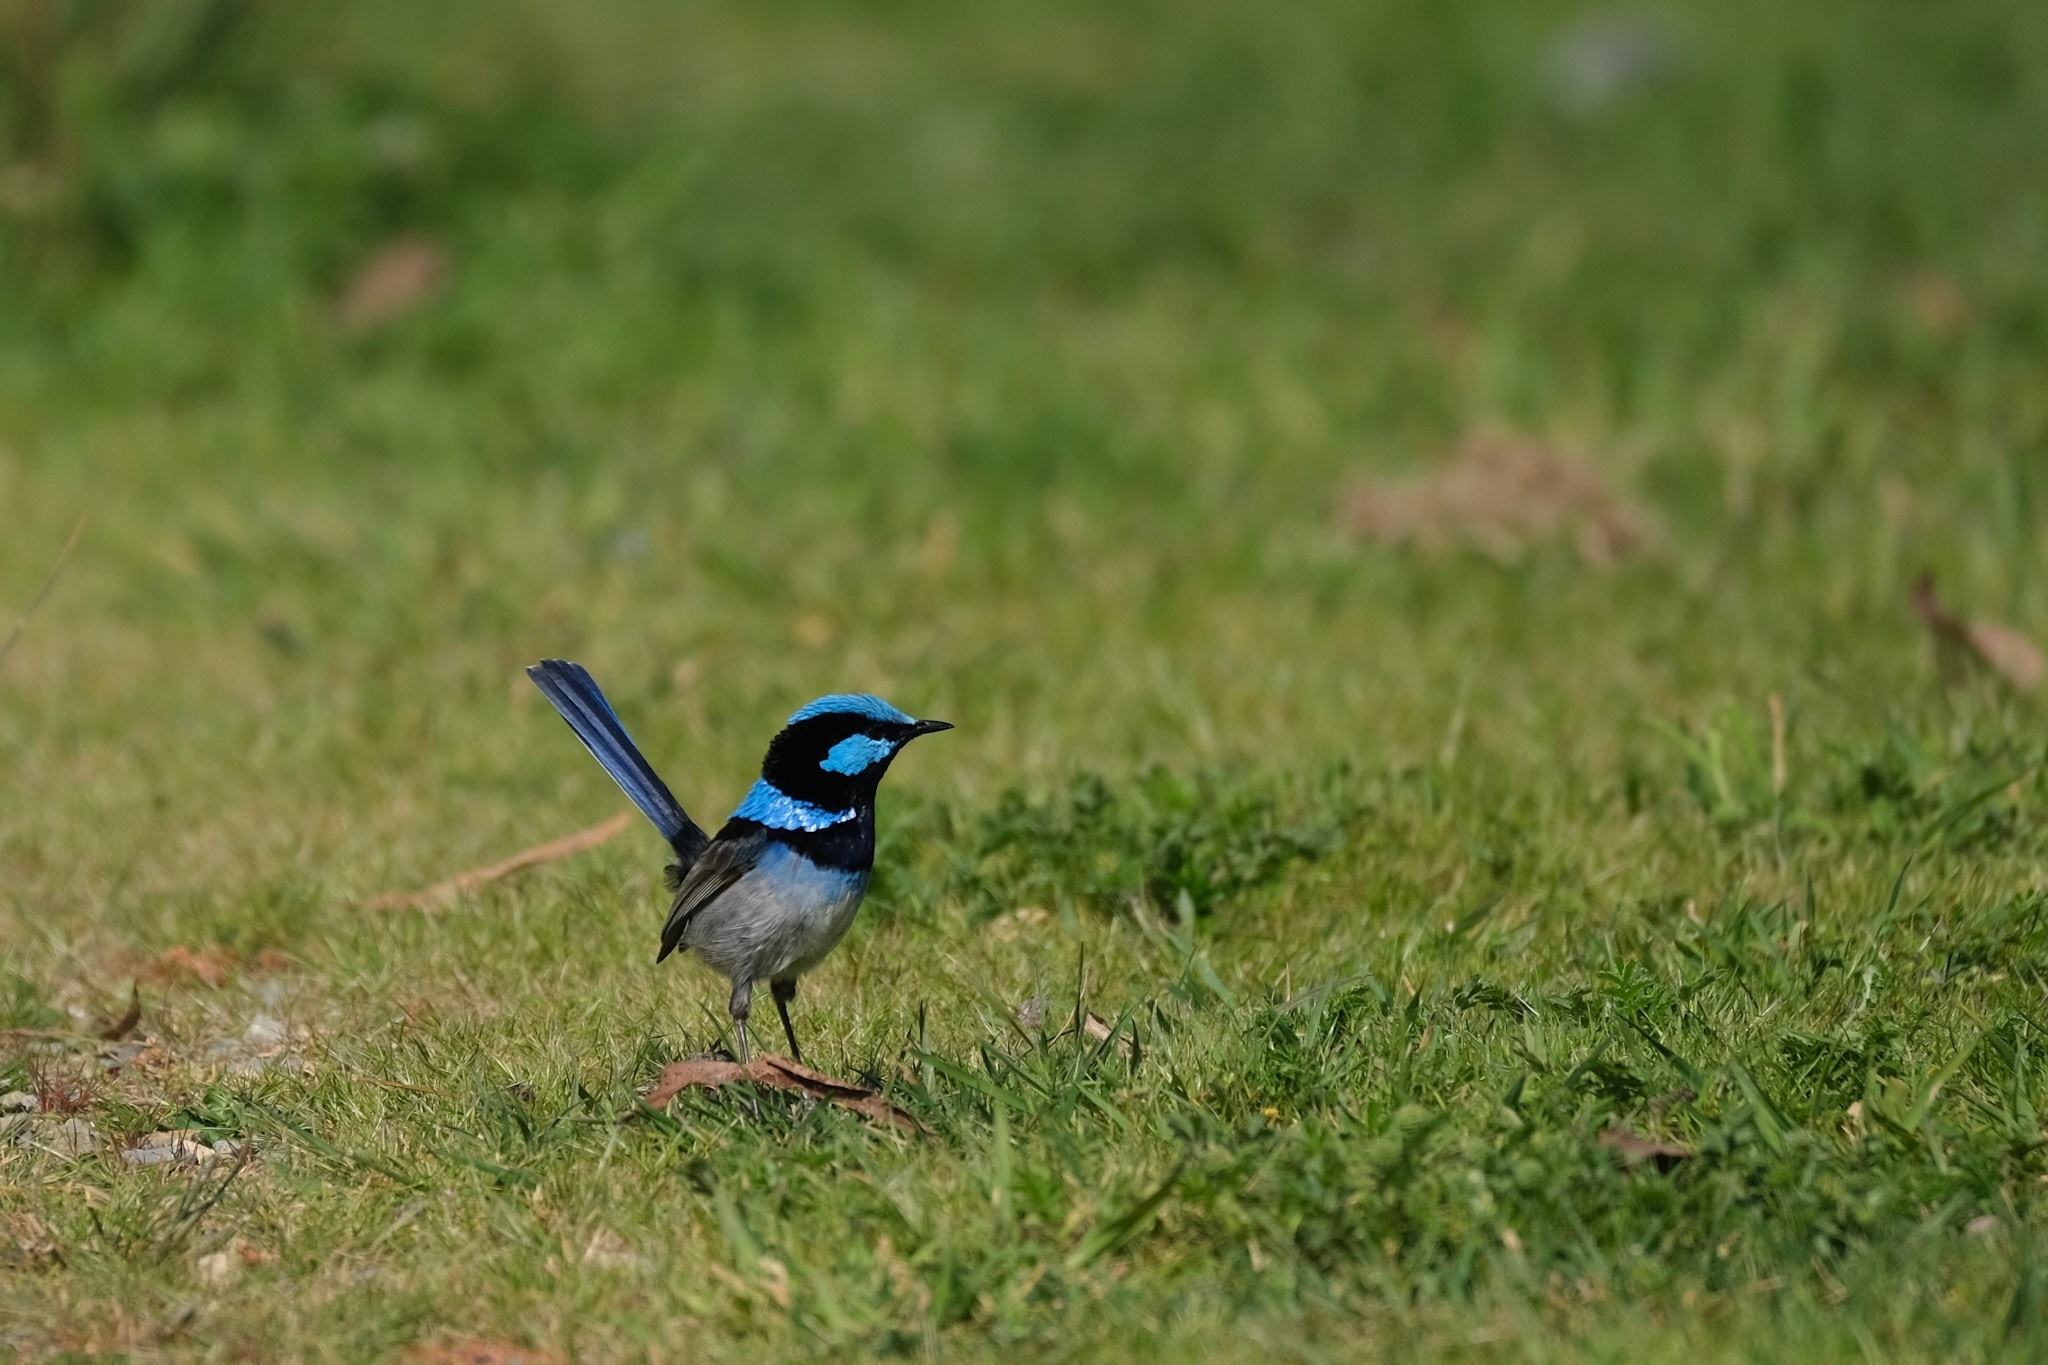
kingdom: Animalia
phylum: Chordata
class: Aves
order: Passeriformes
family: Maluridae
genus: Malurus
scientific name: Malurus cyaneus
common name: Superb fairywren
